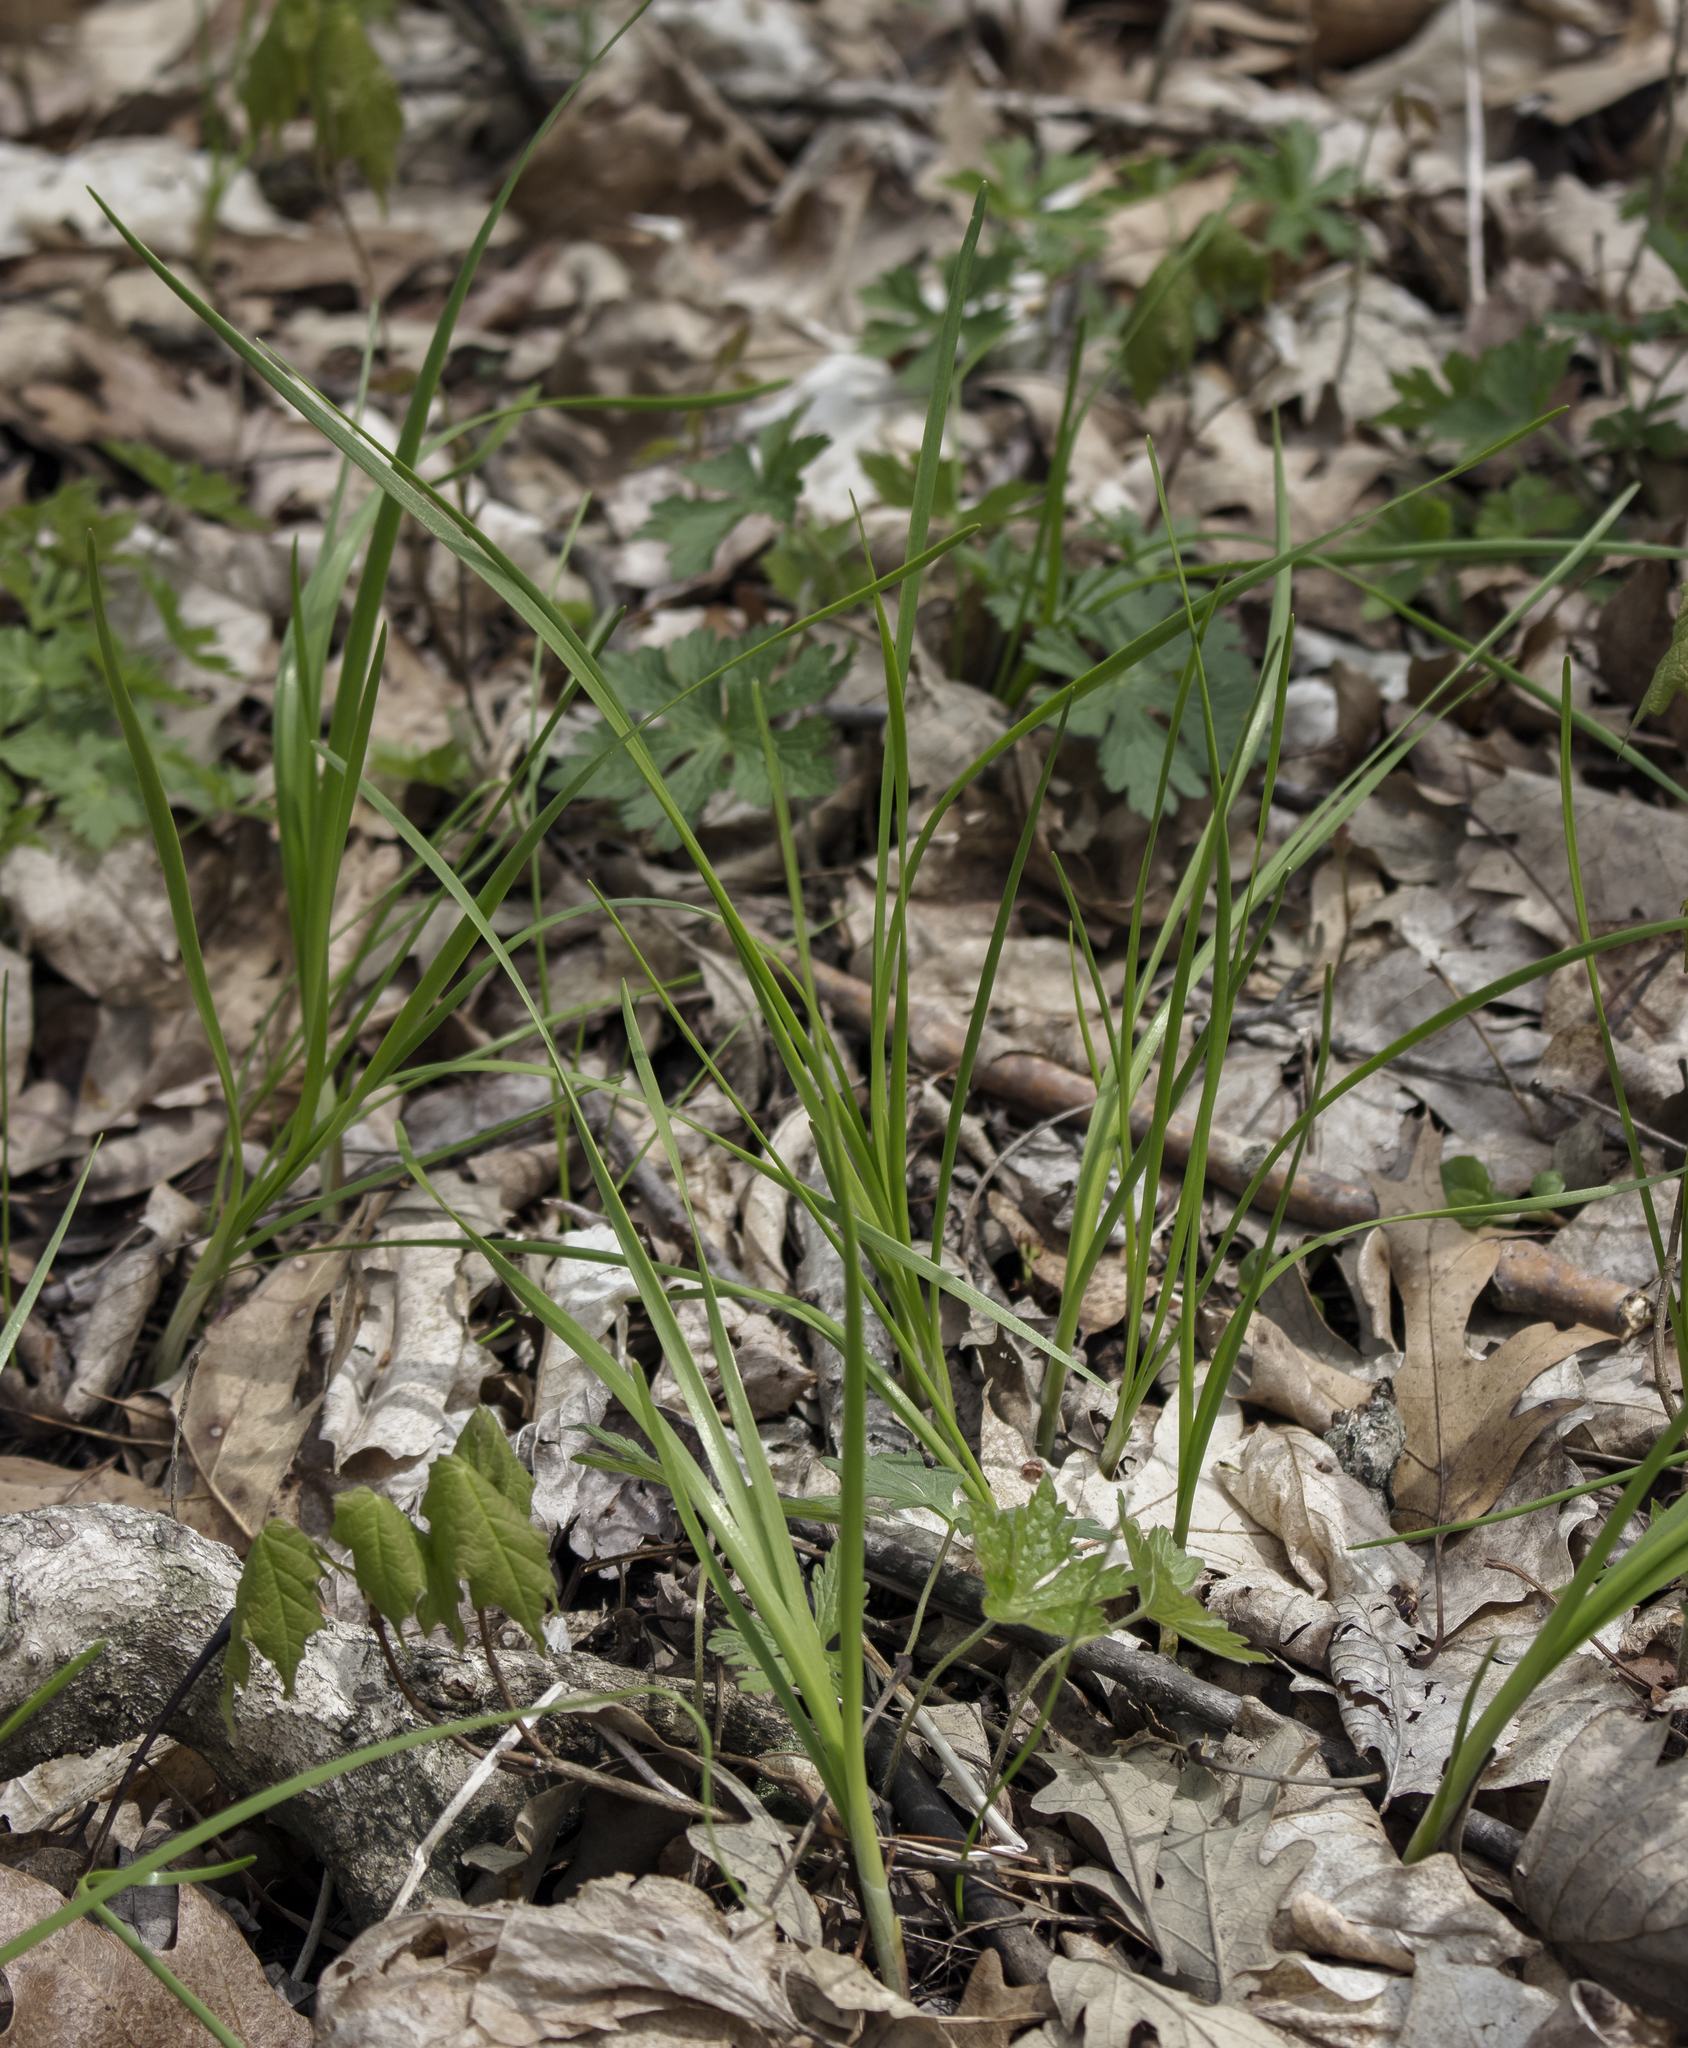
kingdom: Plantae
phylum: Tracheophyta
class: Liliopsida
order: Asparagales
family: Amaryllidaceae
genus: Allium
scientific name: Allium canadense
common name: Meadow garlic
